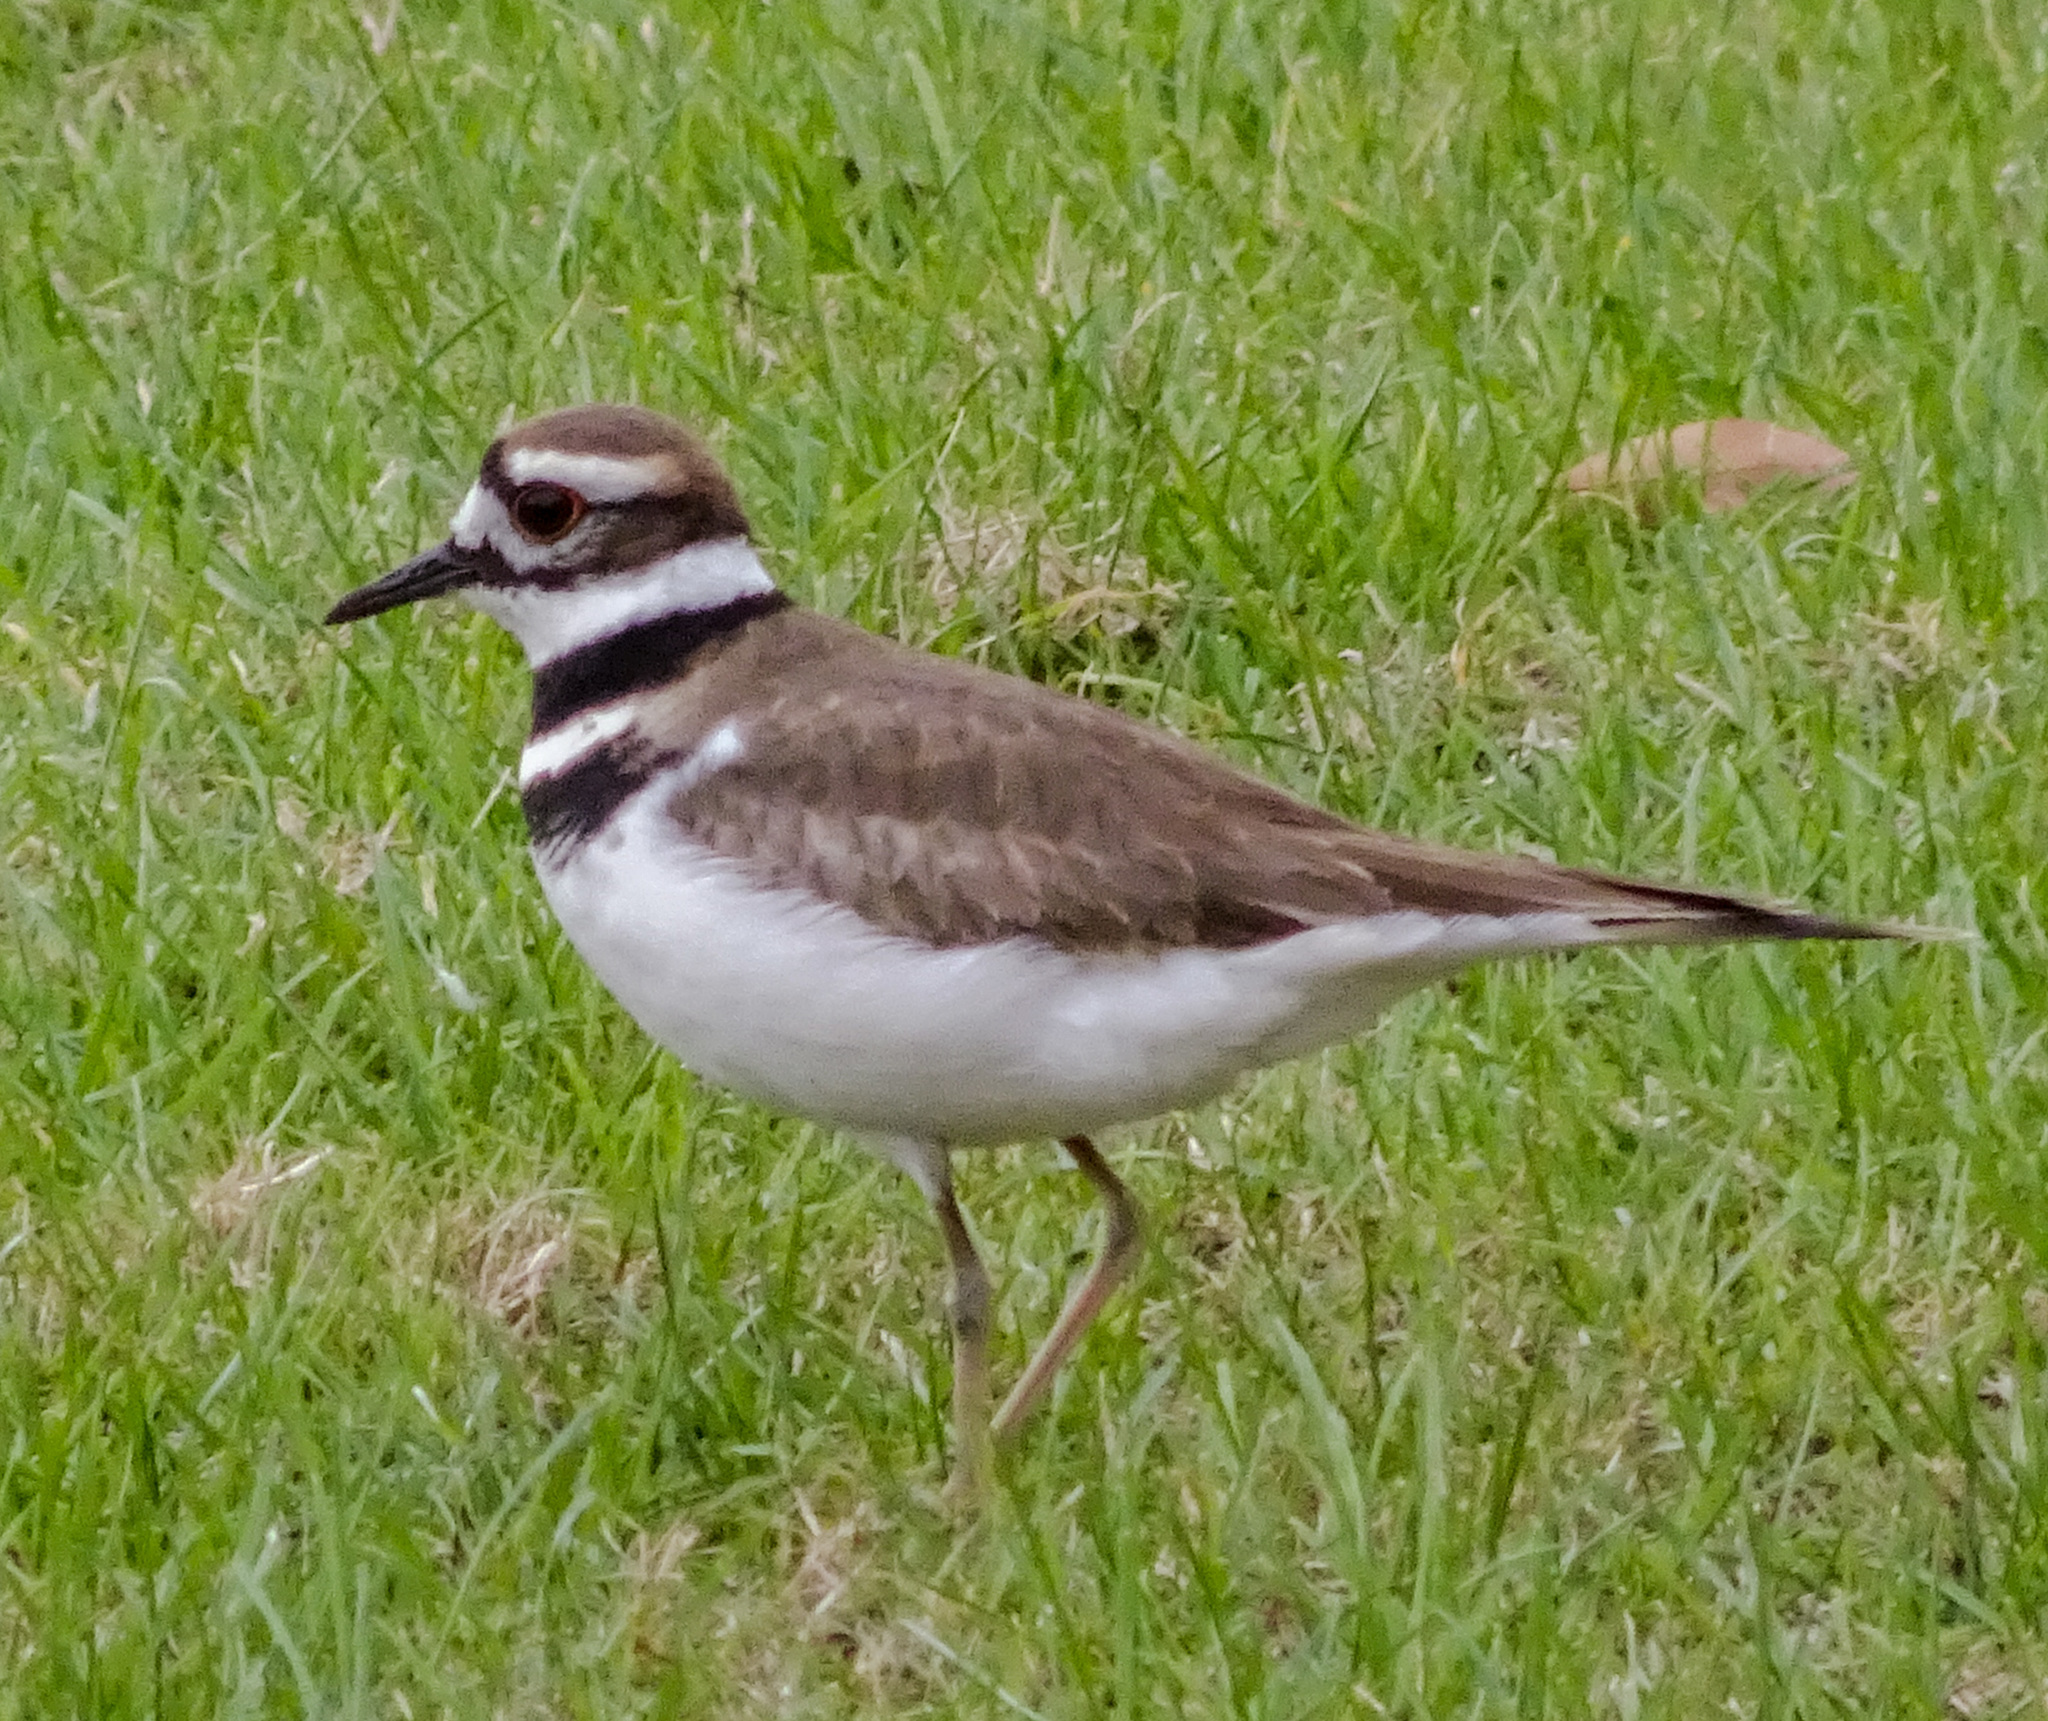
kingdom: Animalia
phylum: Chordata
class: Aves
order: Charadriiformes
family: Charadriidae
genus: Charadrius
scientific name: Charadrius vociferus
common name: Killdeer
